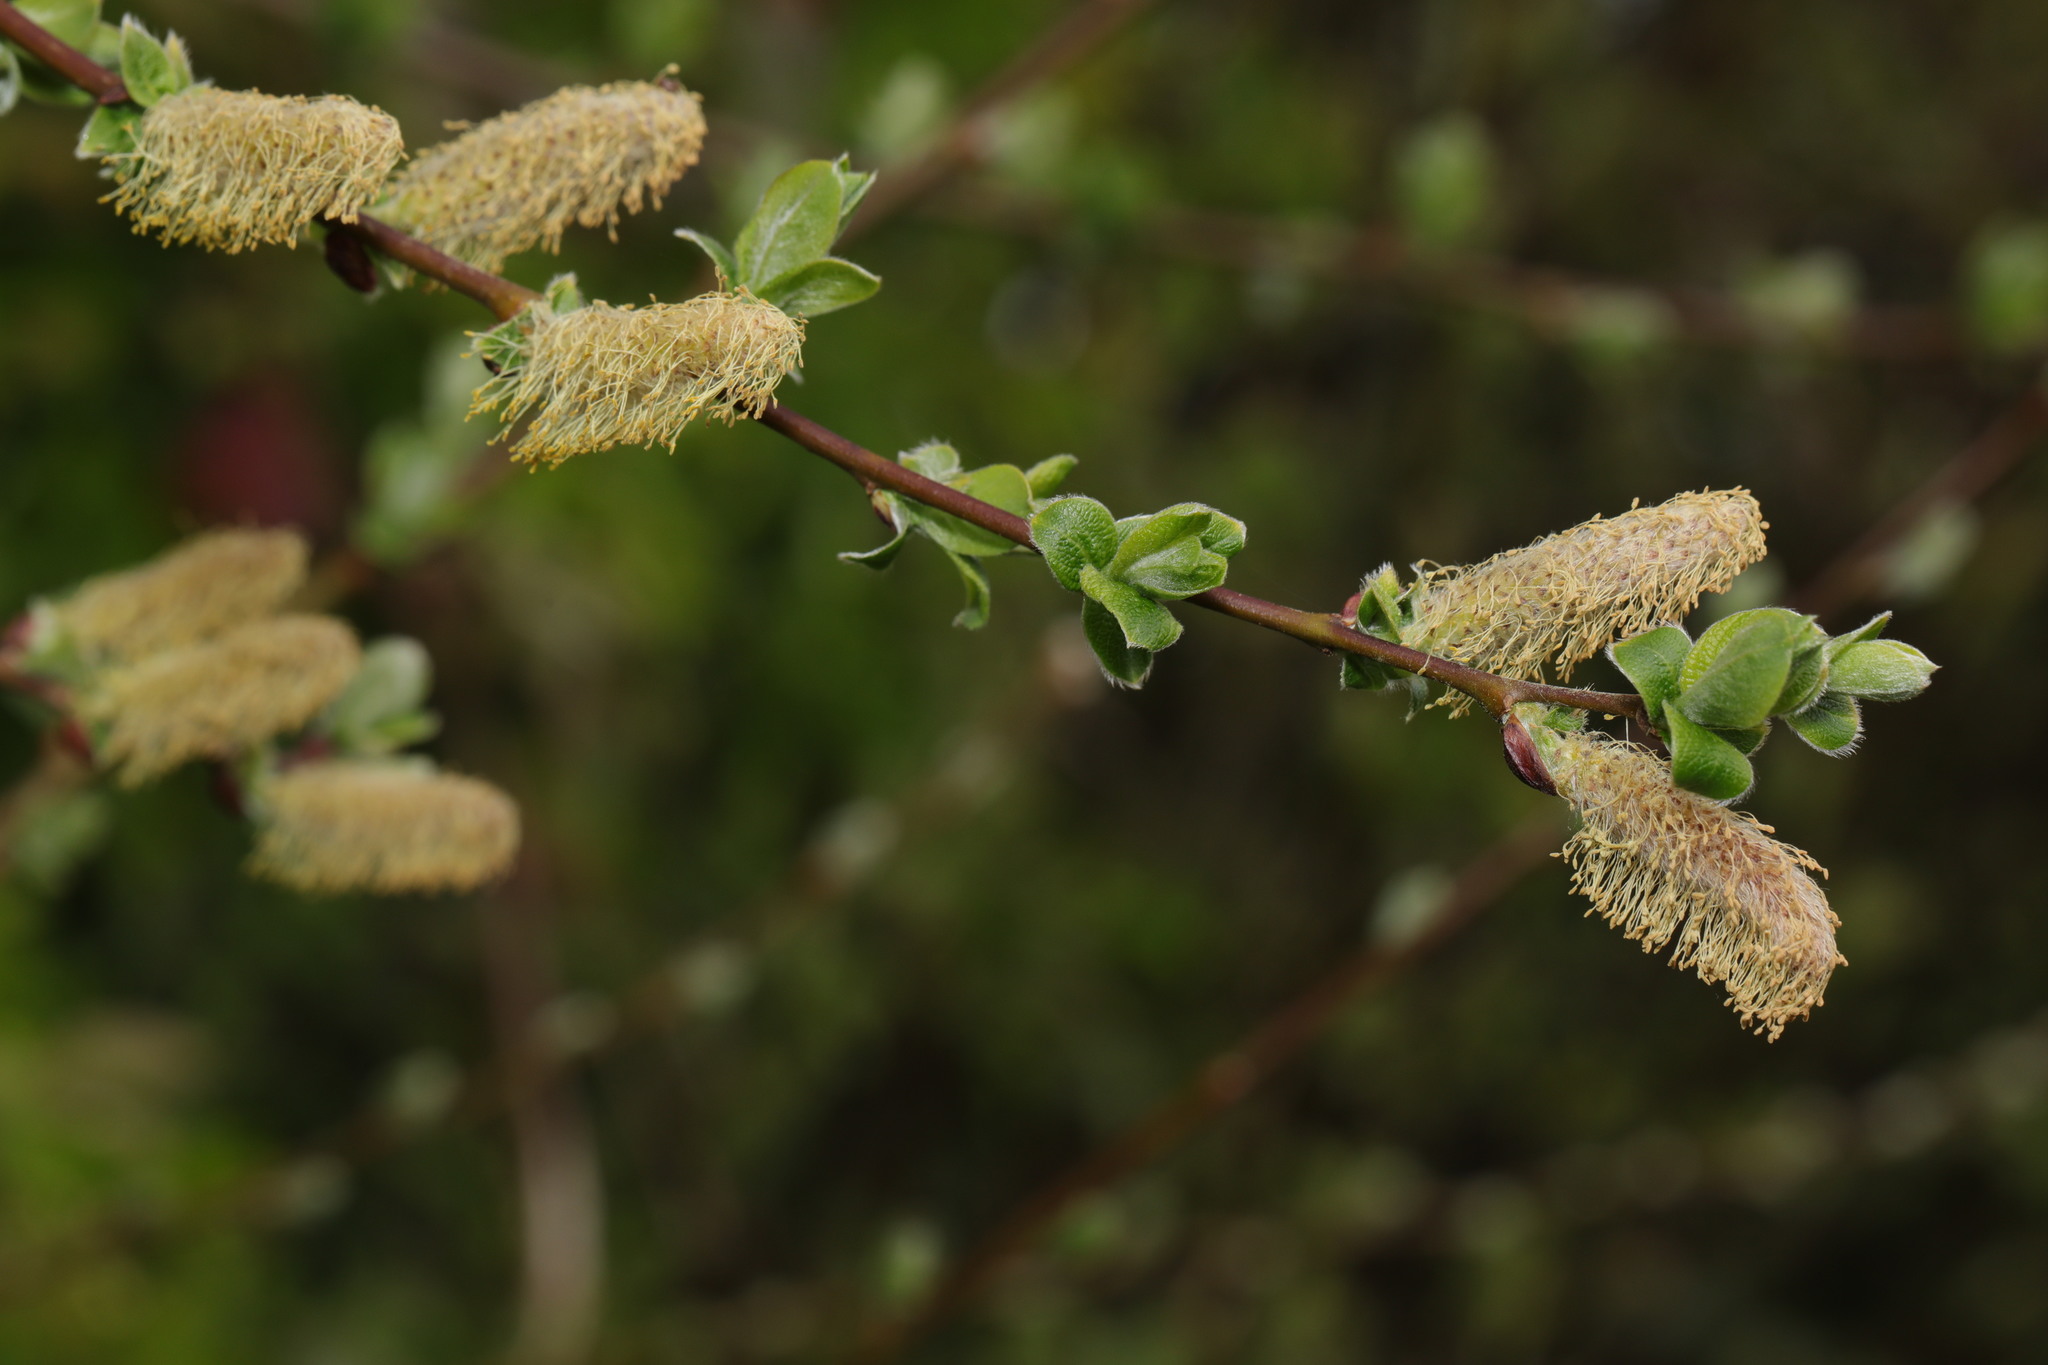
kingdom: Plantae
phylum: Tracheophyta
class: Magnoliopsida
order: Malpighiales
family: Salicaceae
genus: Salix
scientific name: Salix cinerea
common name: Common sallow
